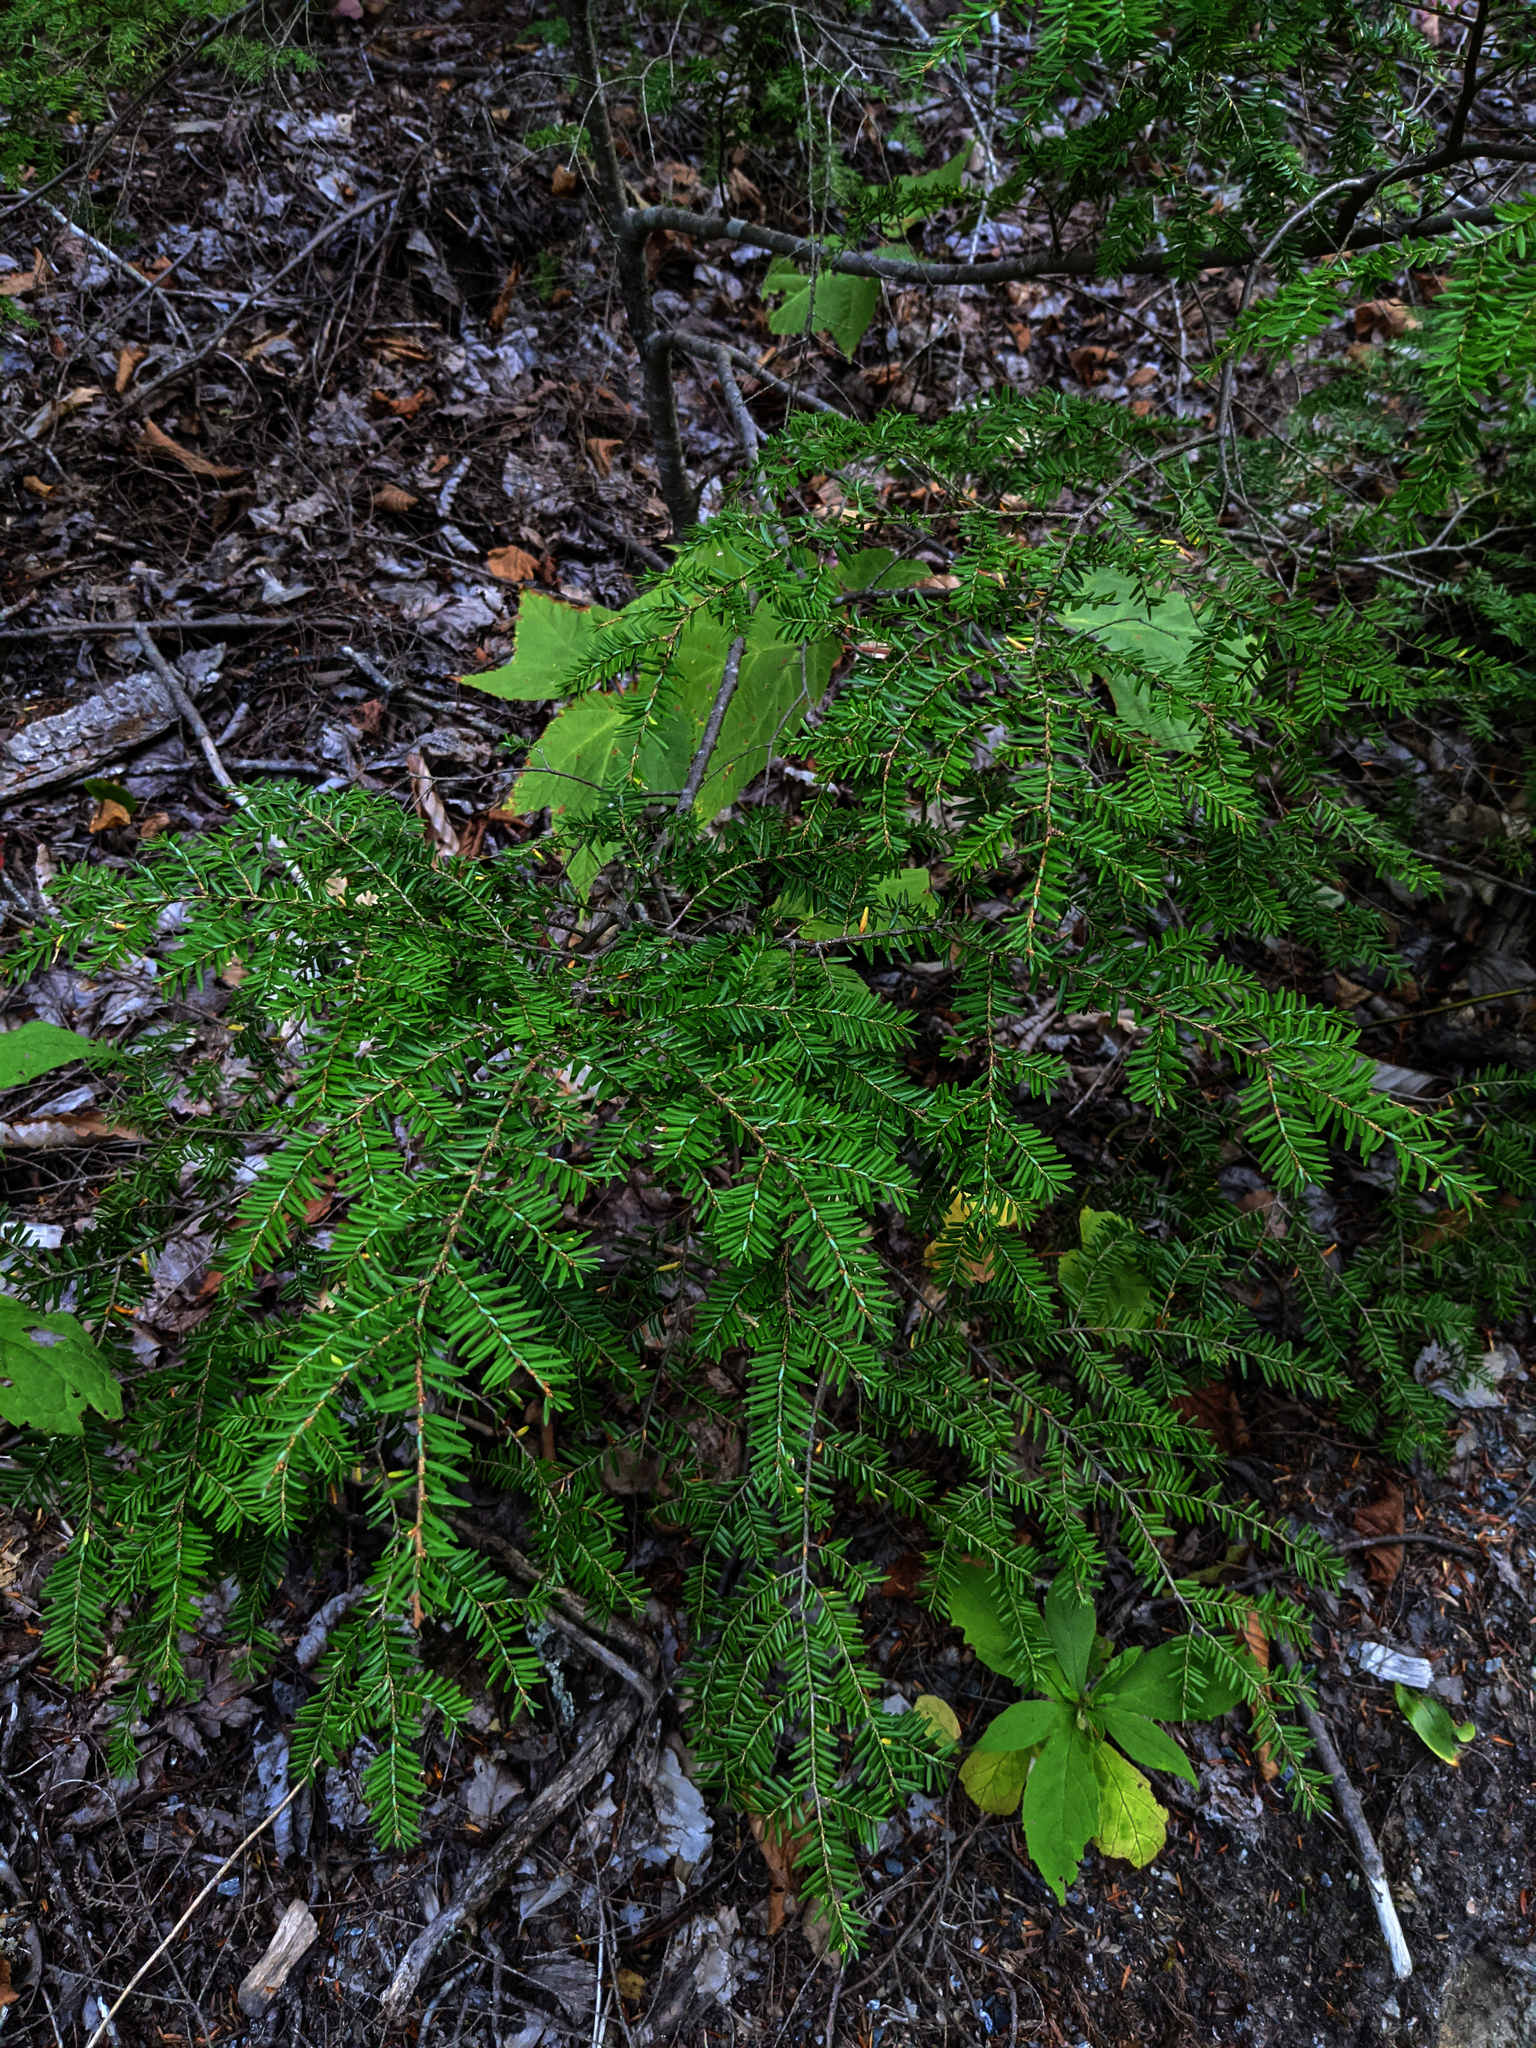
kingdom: Plantae
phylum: Tracheophyta
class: Pinopsida
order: Pinales
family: Pinaceae
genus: Tsuga
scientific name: Tsuga canadensis
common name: Eastern hemlock
